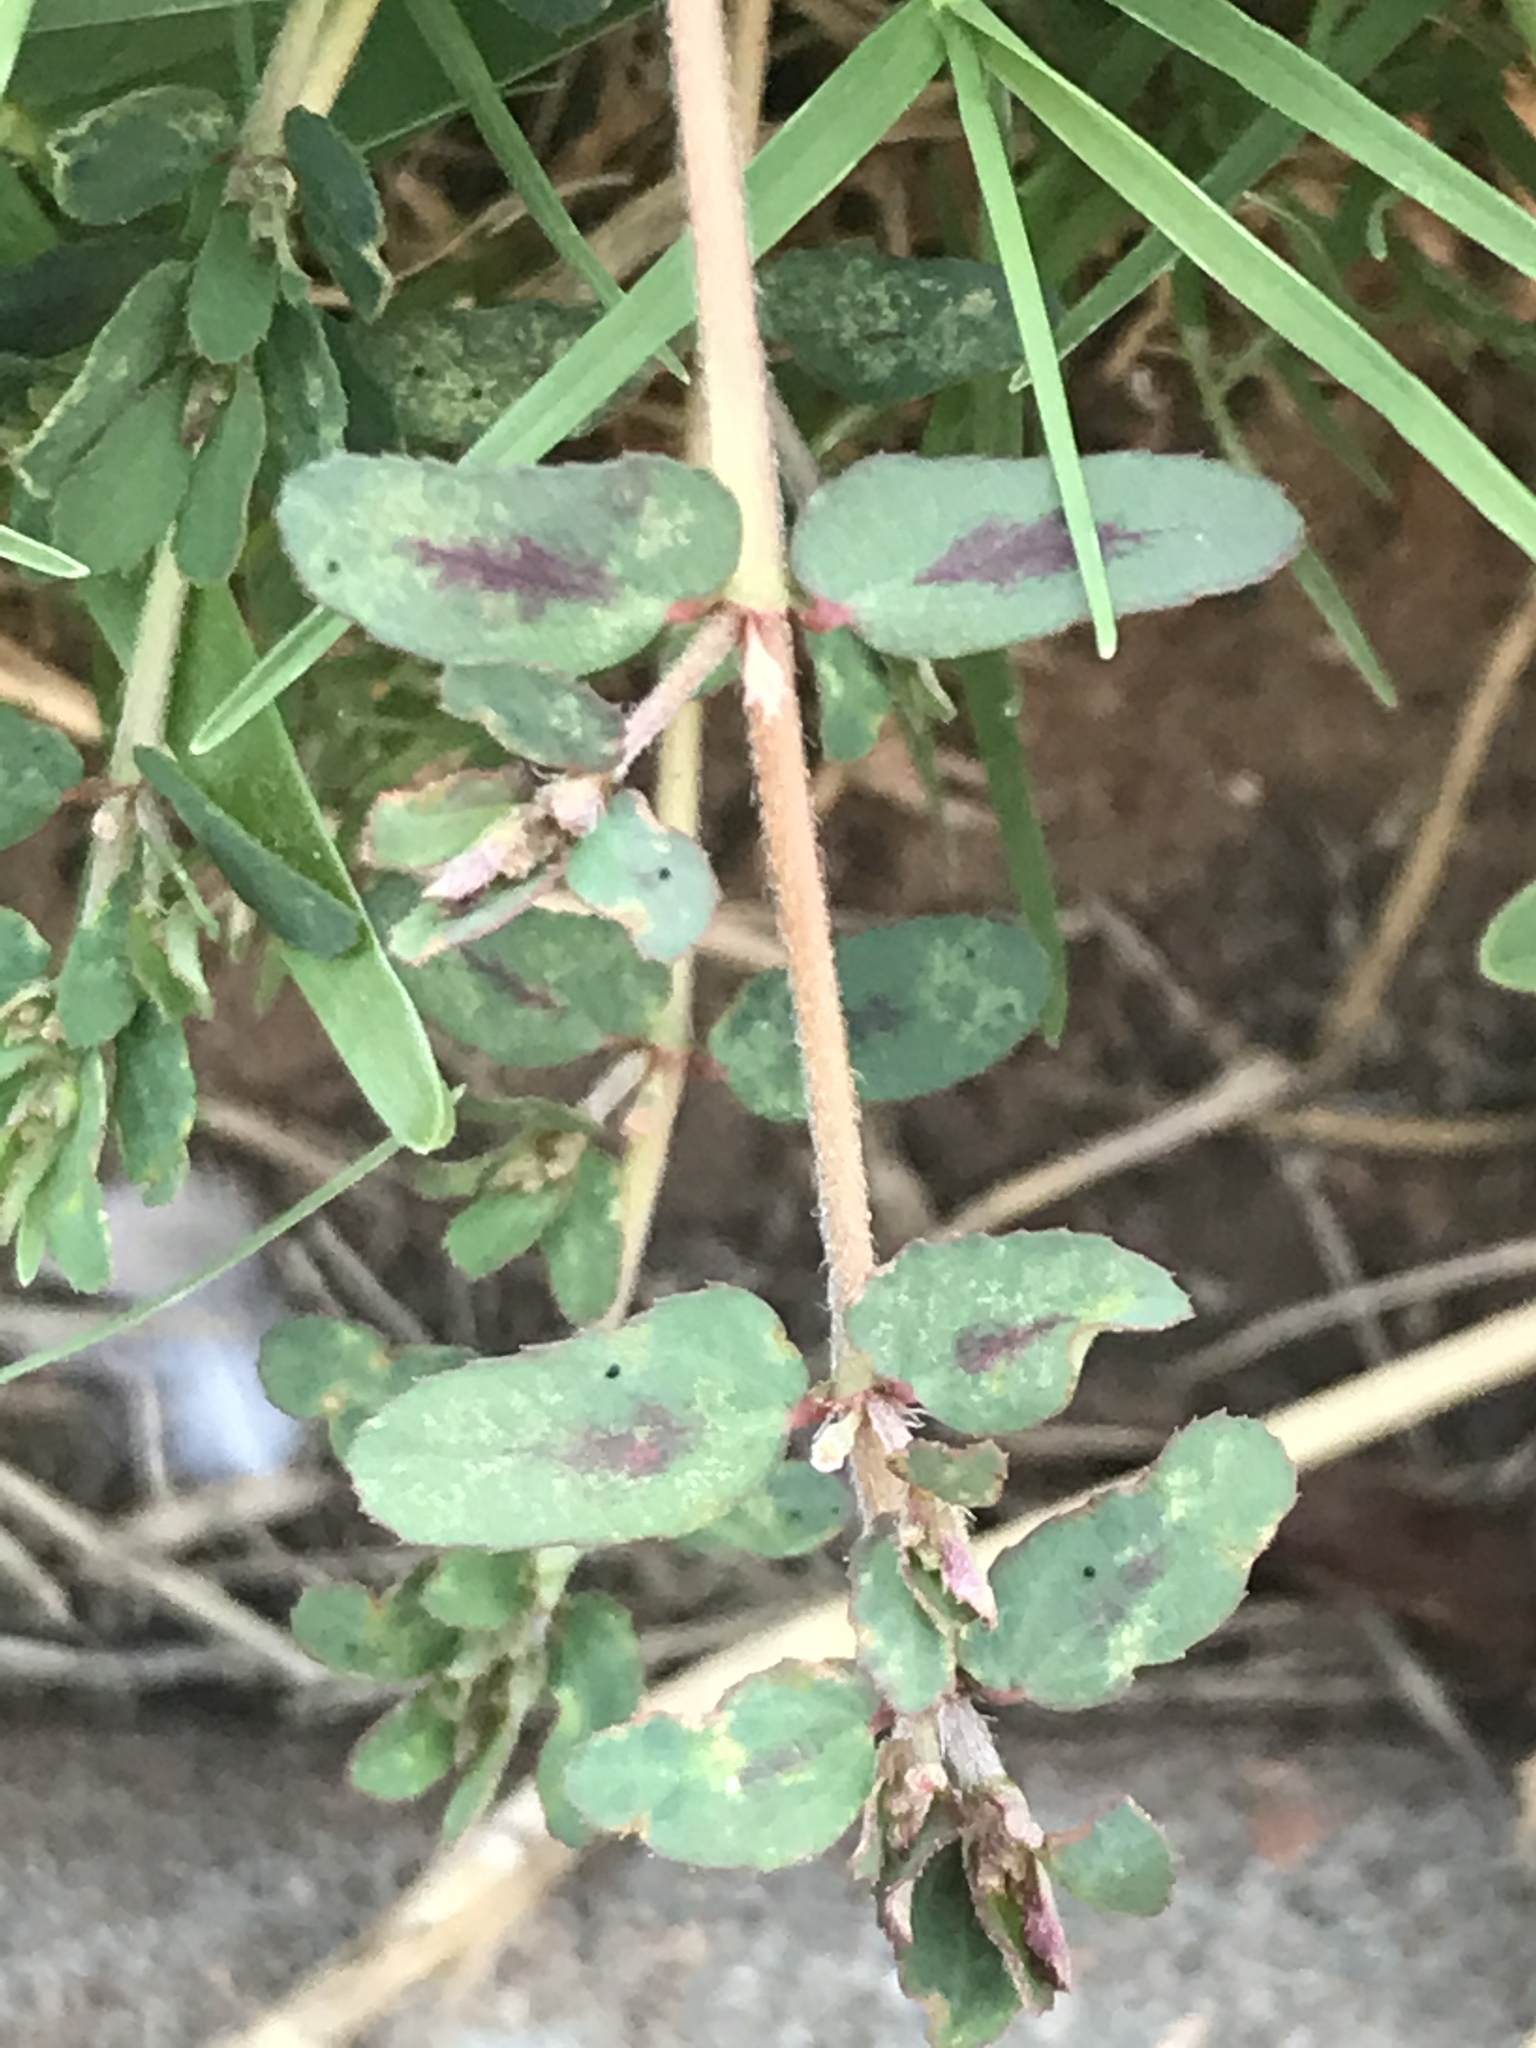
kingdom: Plantae
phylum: Tracheophyta
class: Magnoliopsida
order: Malpighiales
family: Euphorbiaceae
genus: Euphorbia
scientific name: Euphorbia maculata
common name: Spotted spurge
